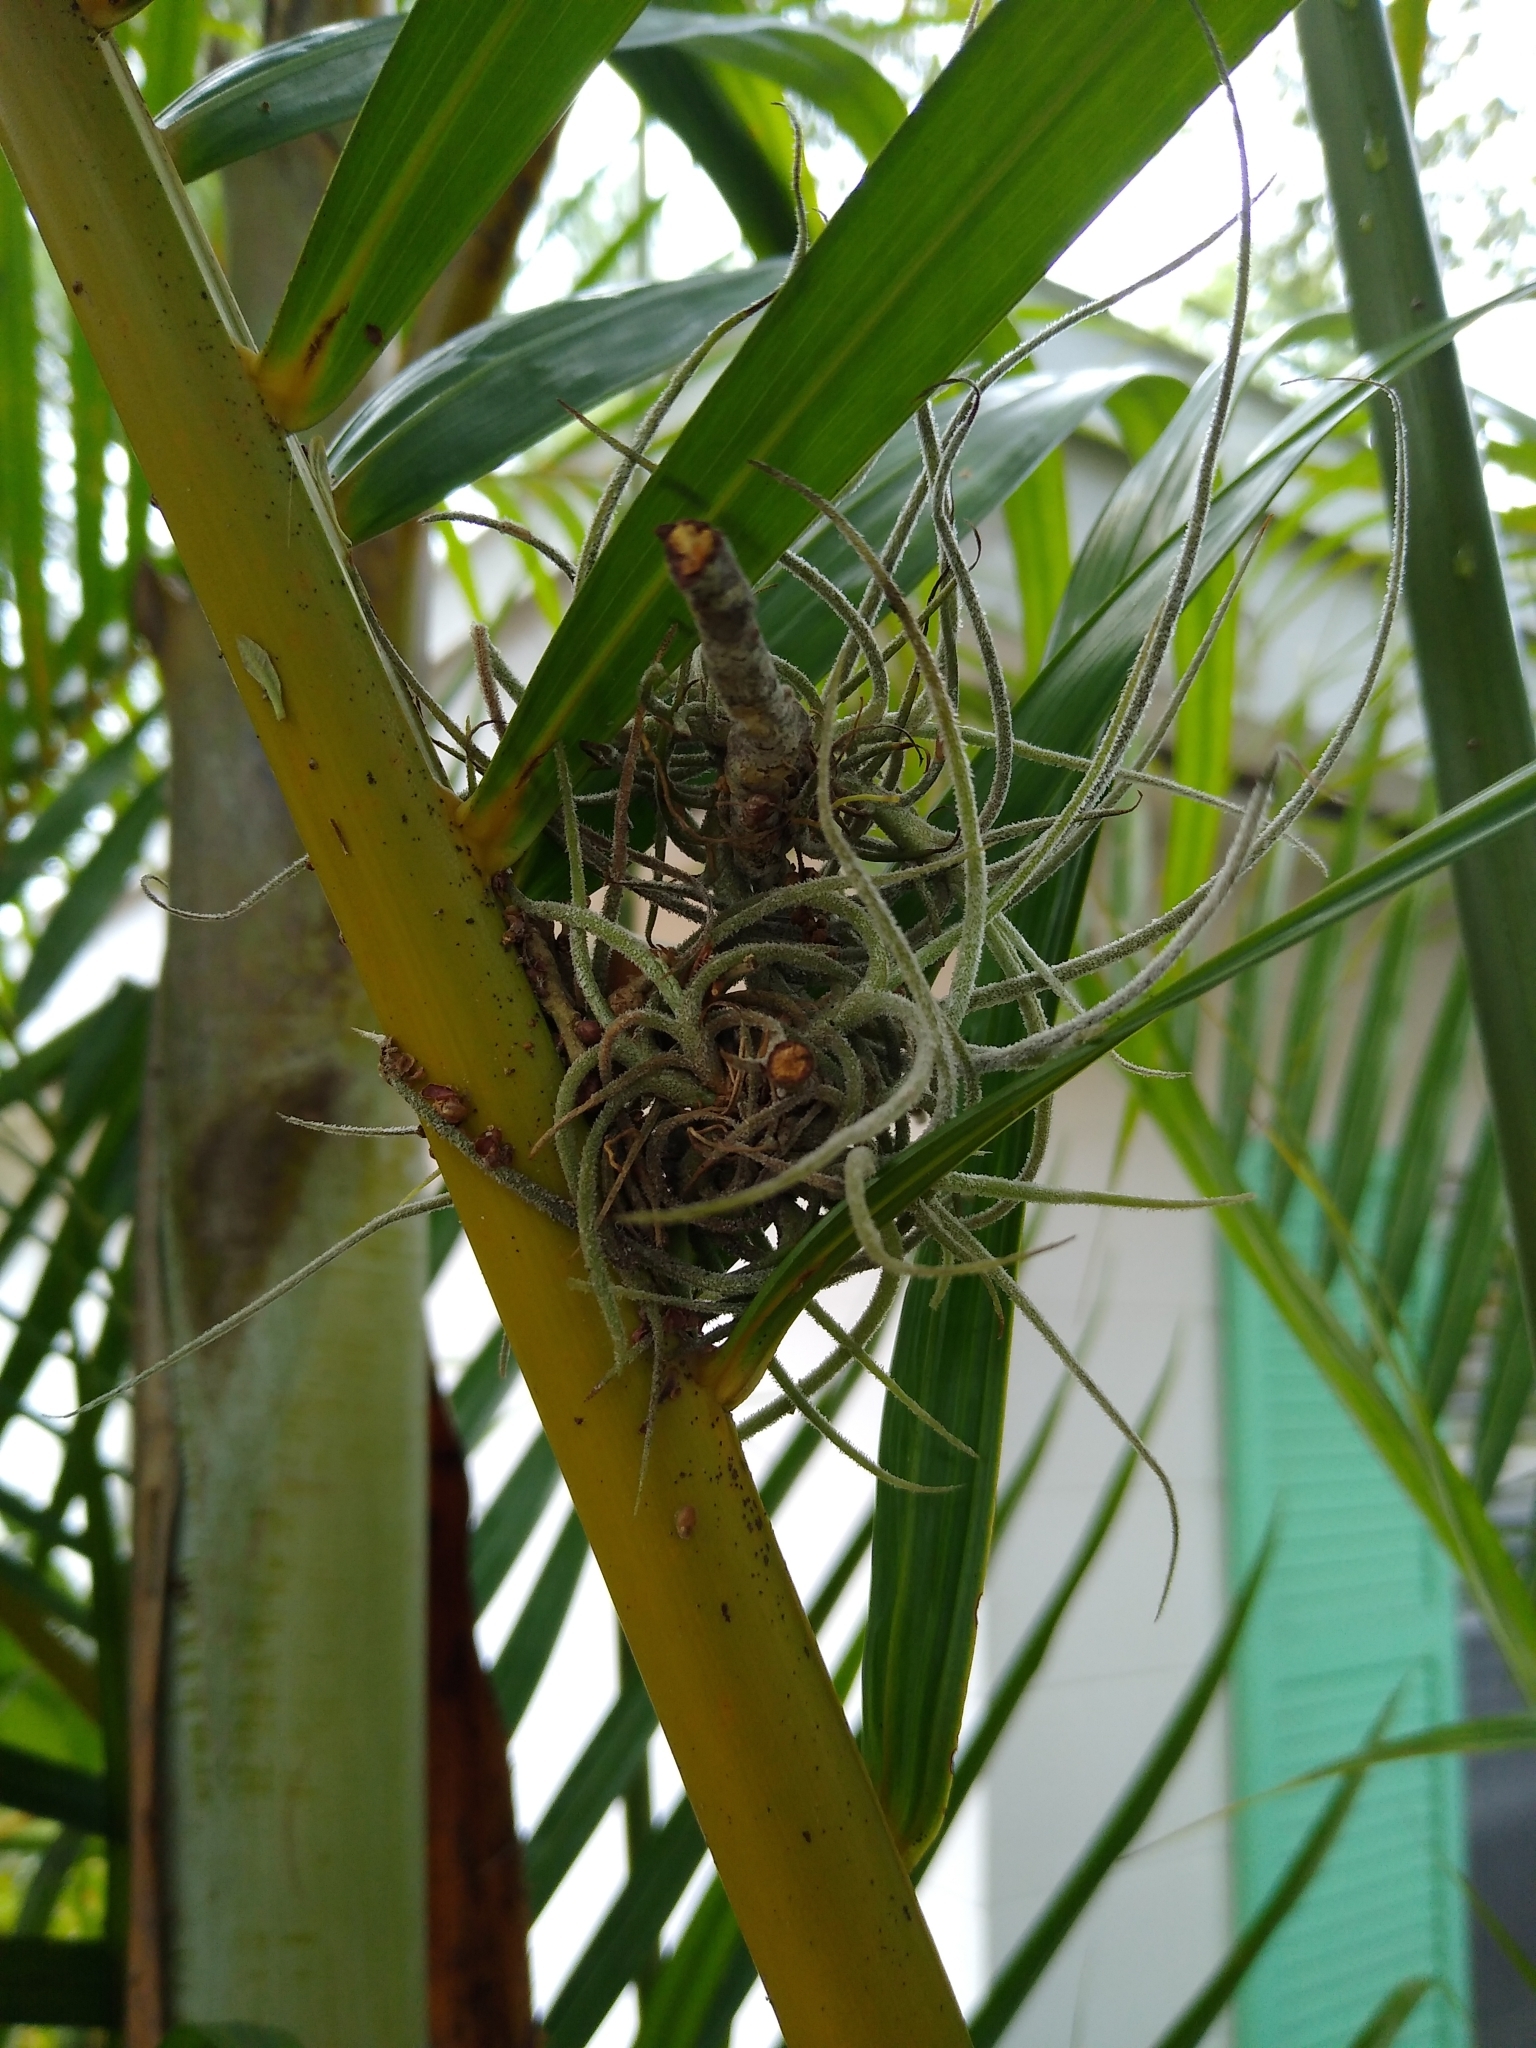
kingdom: Plantae
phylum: Tracheophyta
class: Liliopsida
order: Poales
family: Bromeliaceae
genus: Tillandsia
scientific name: Tillandsia recurvata
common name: Small ballmoss
